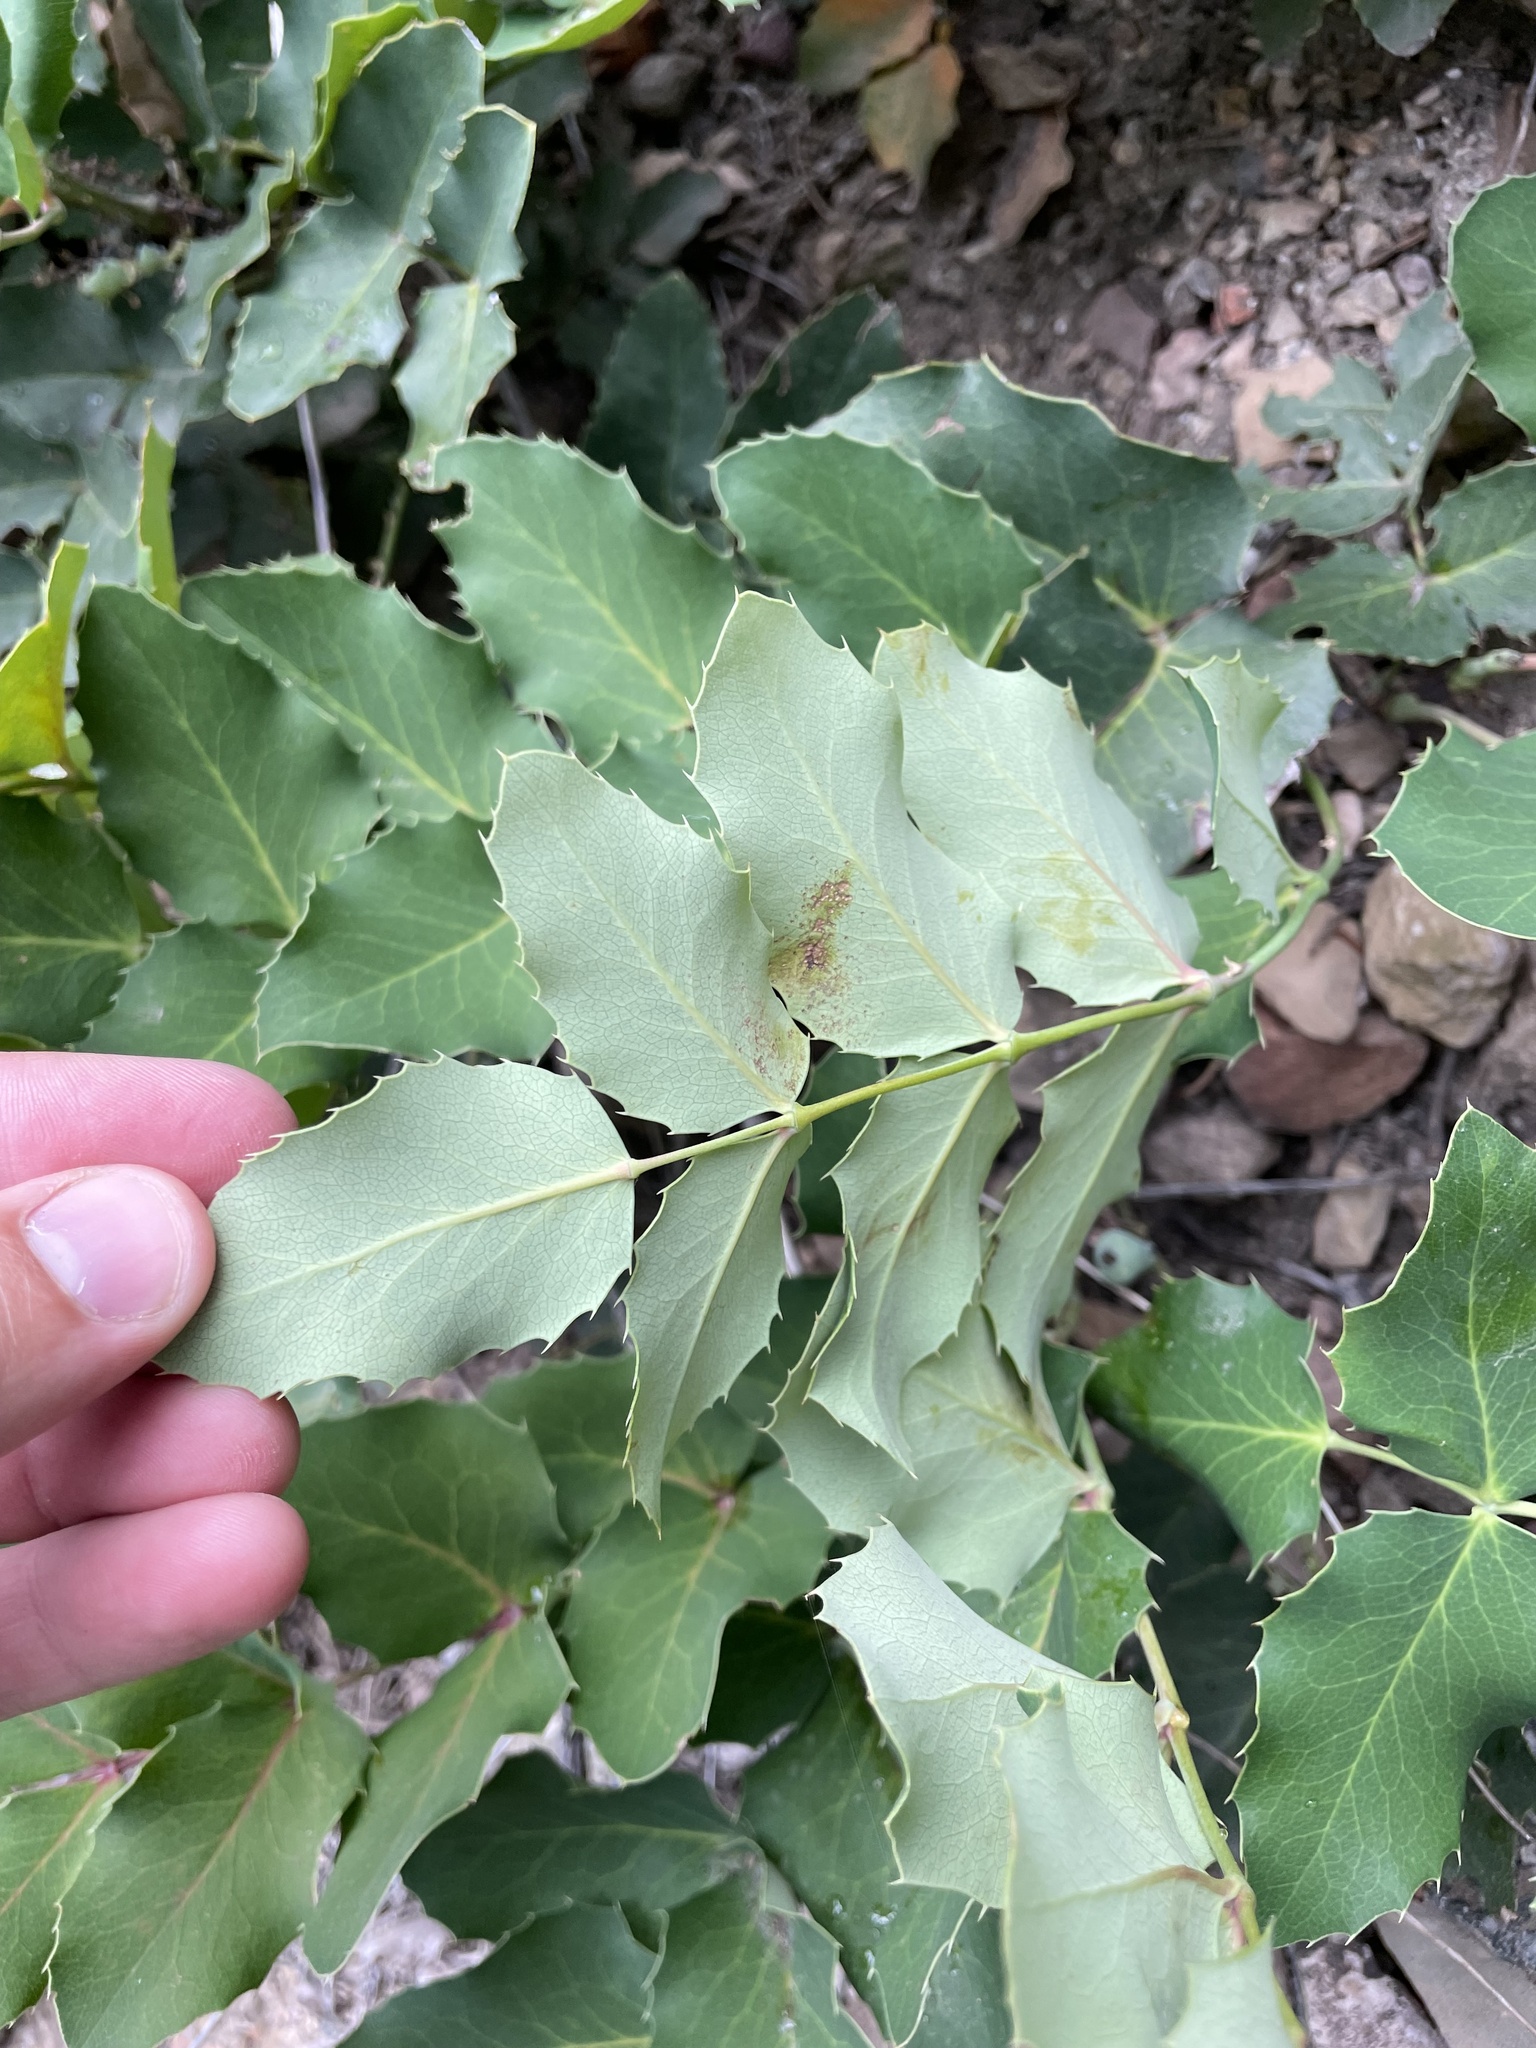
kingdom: Plantae
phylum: Tracheophyta
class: Magnoliopsida
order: Ranunculales
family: Berberidaceae
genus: Mahonia
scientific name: Mahonia repens
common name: Creeping oregon-grape
